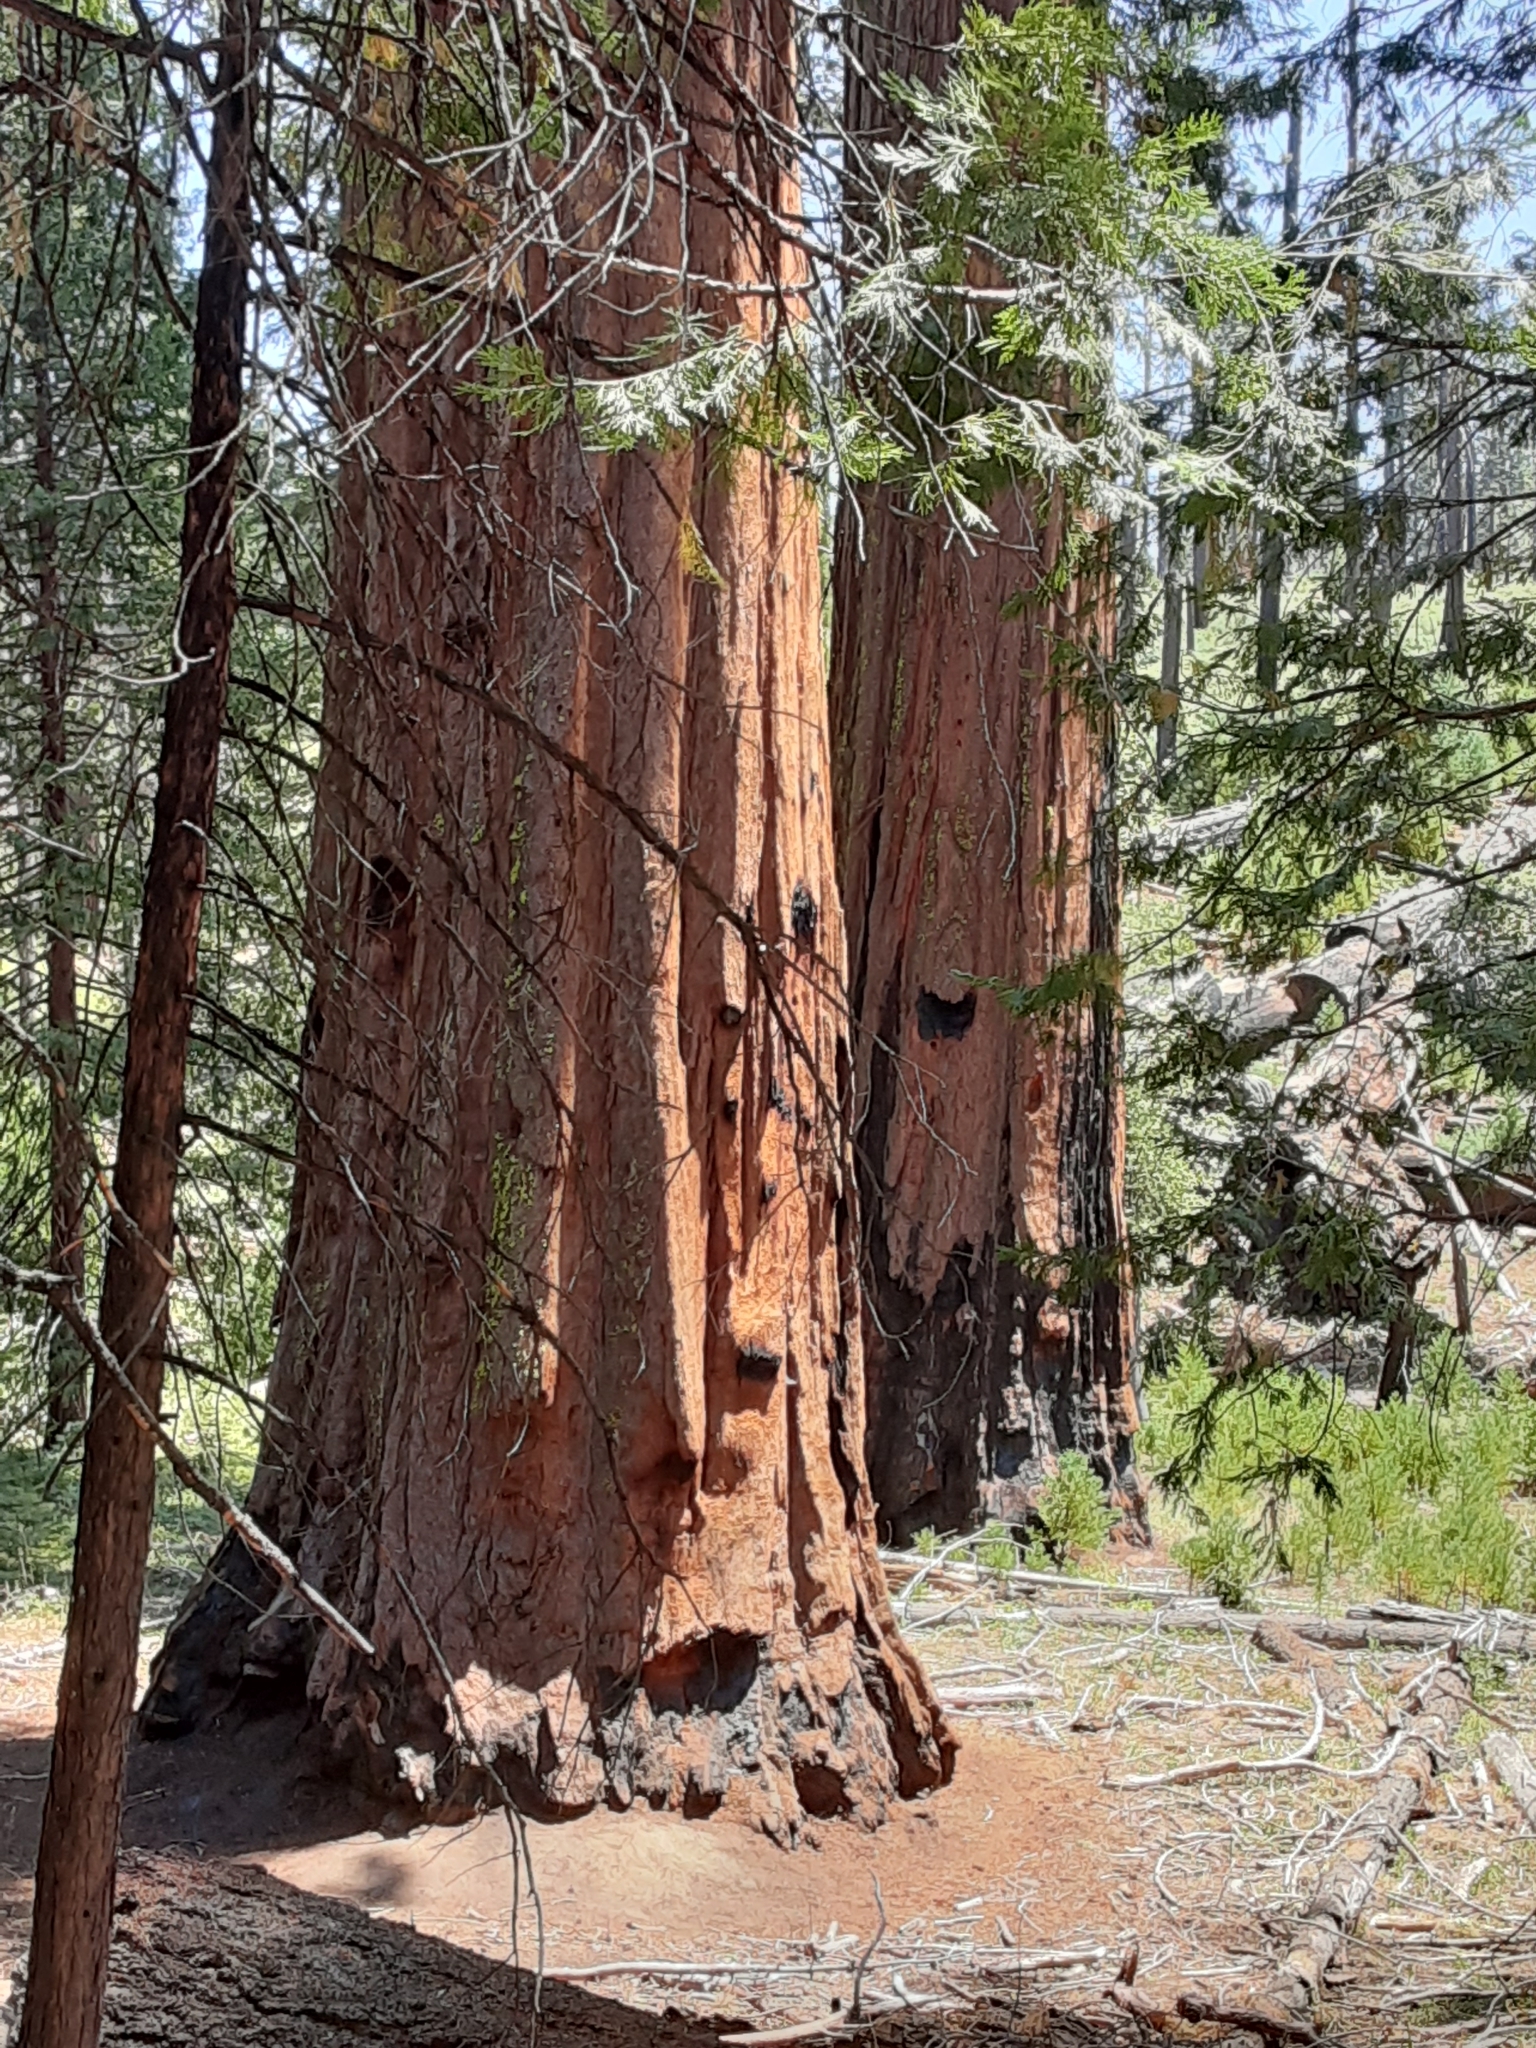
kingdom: Plantae
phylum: Tracheophyta
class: Pinopsida
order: Pinales
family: Cupressaceae
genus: Sequoiadendron
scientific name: Sequoiadendron giganteum
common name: Wellingtonia
